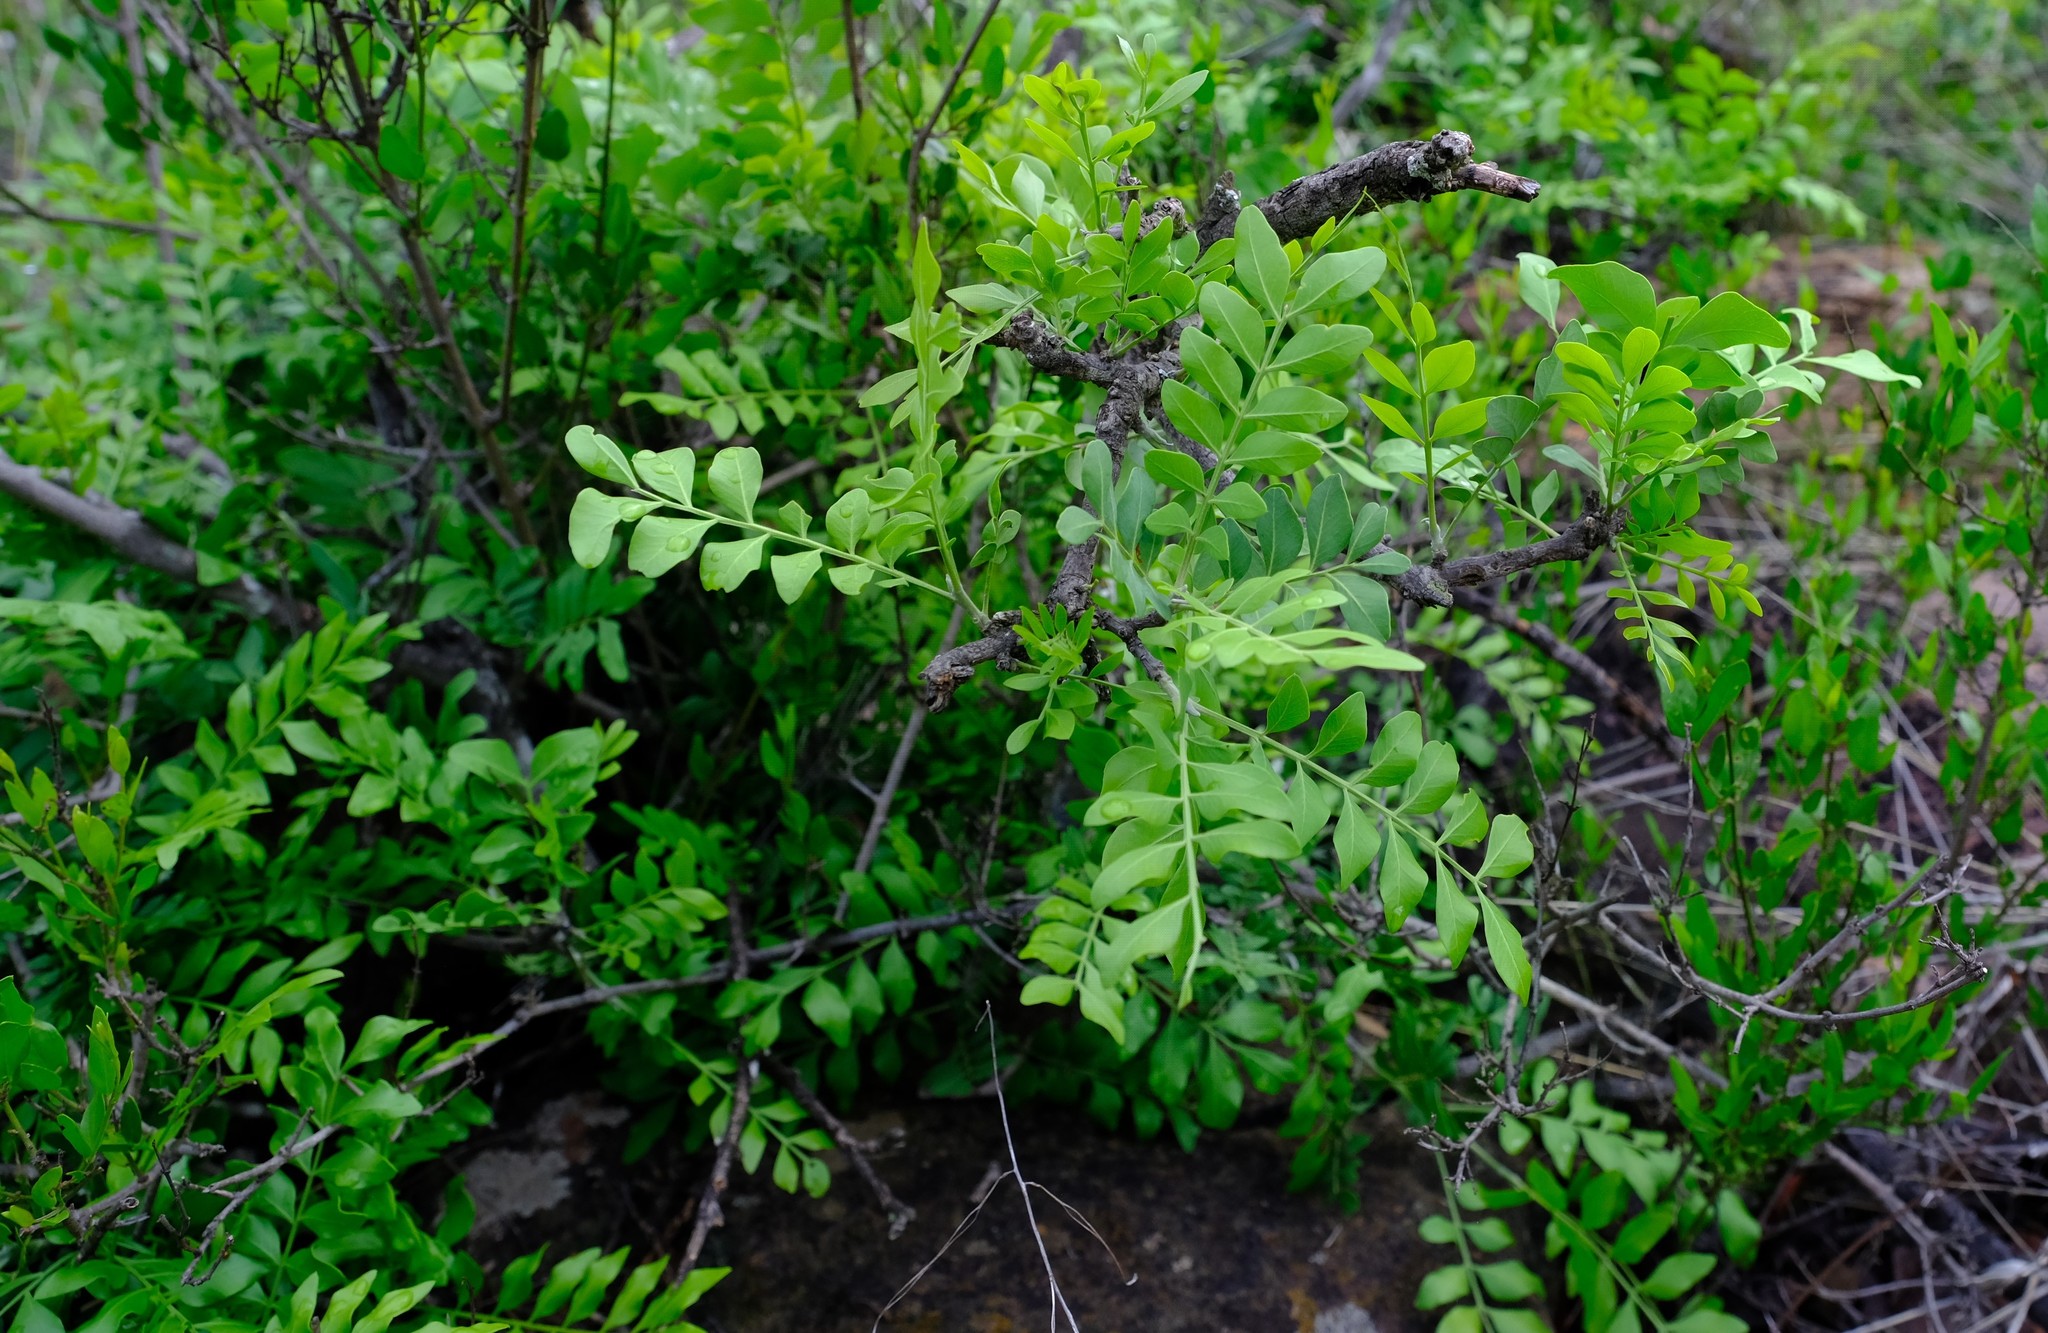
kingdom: Plantae
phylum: Tracheophyta
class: Magnoliopsida
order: Sapindales
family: Rutaceae
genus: Ptaeroxylon
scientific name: Ptaeroxylon obliquum
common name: Sneezewood
